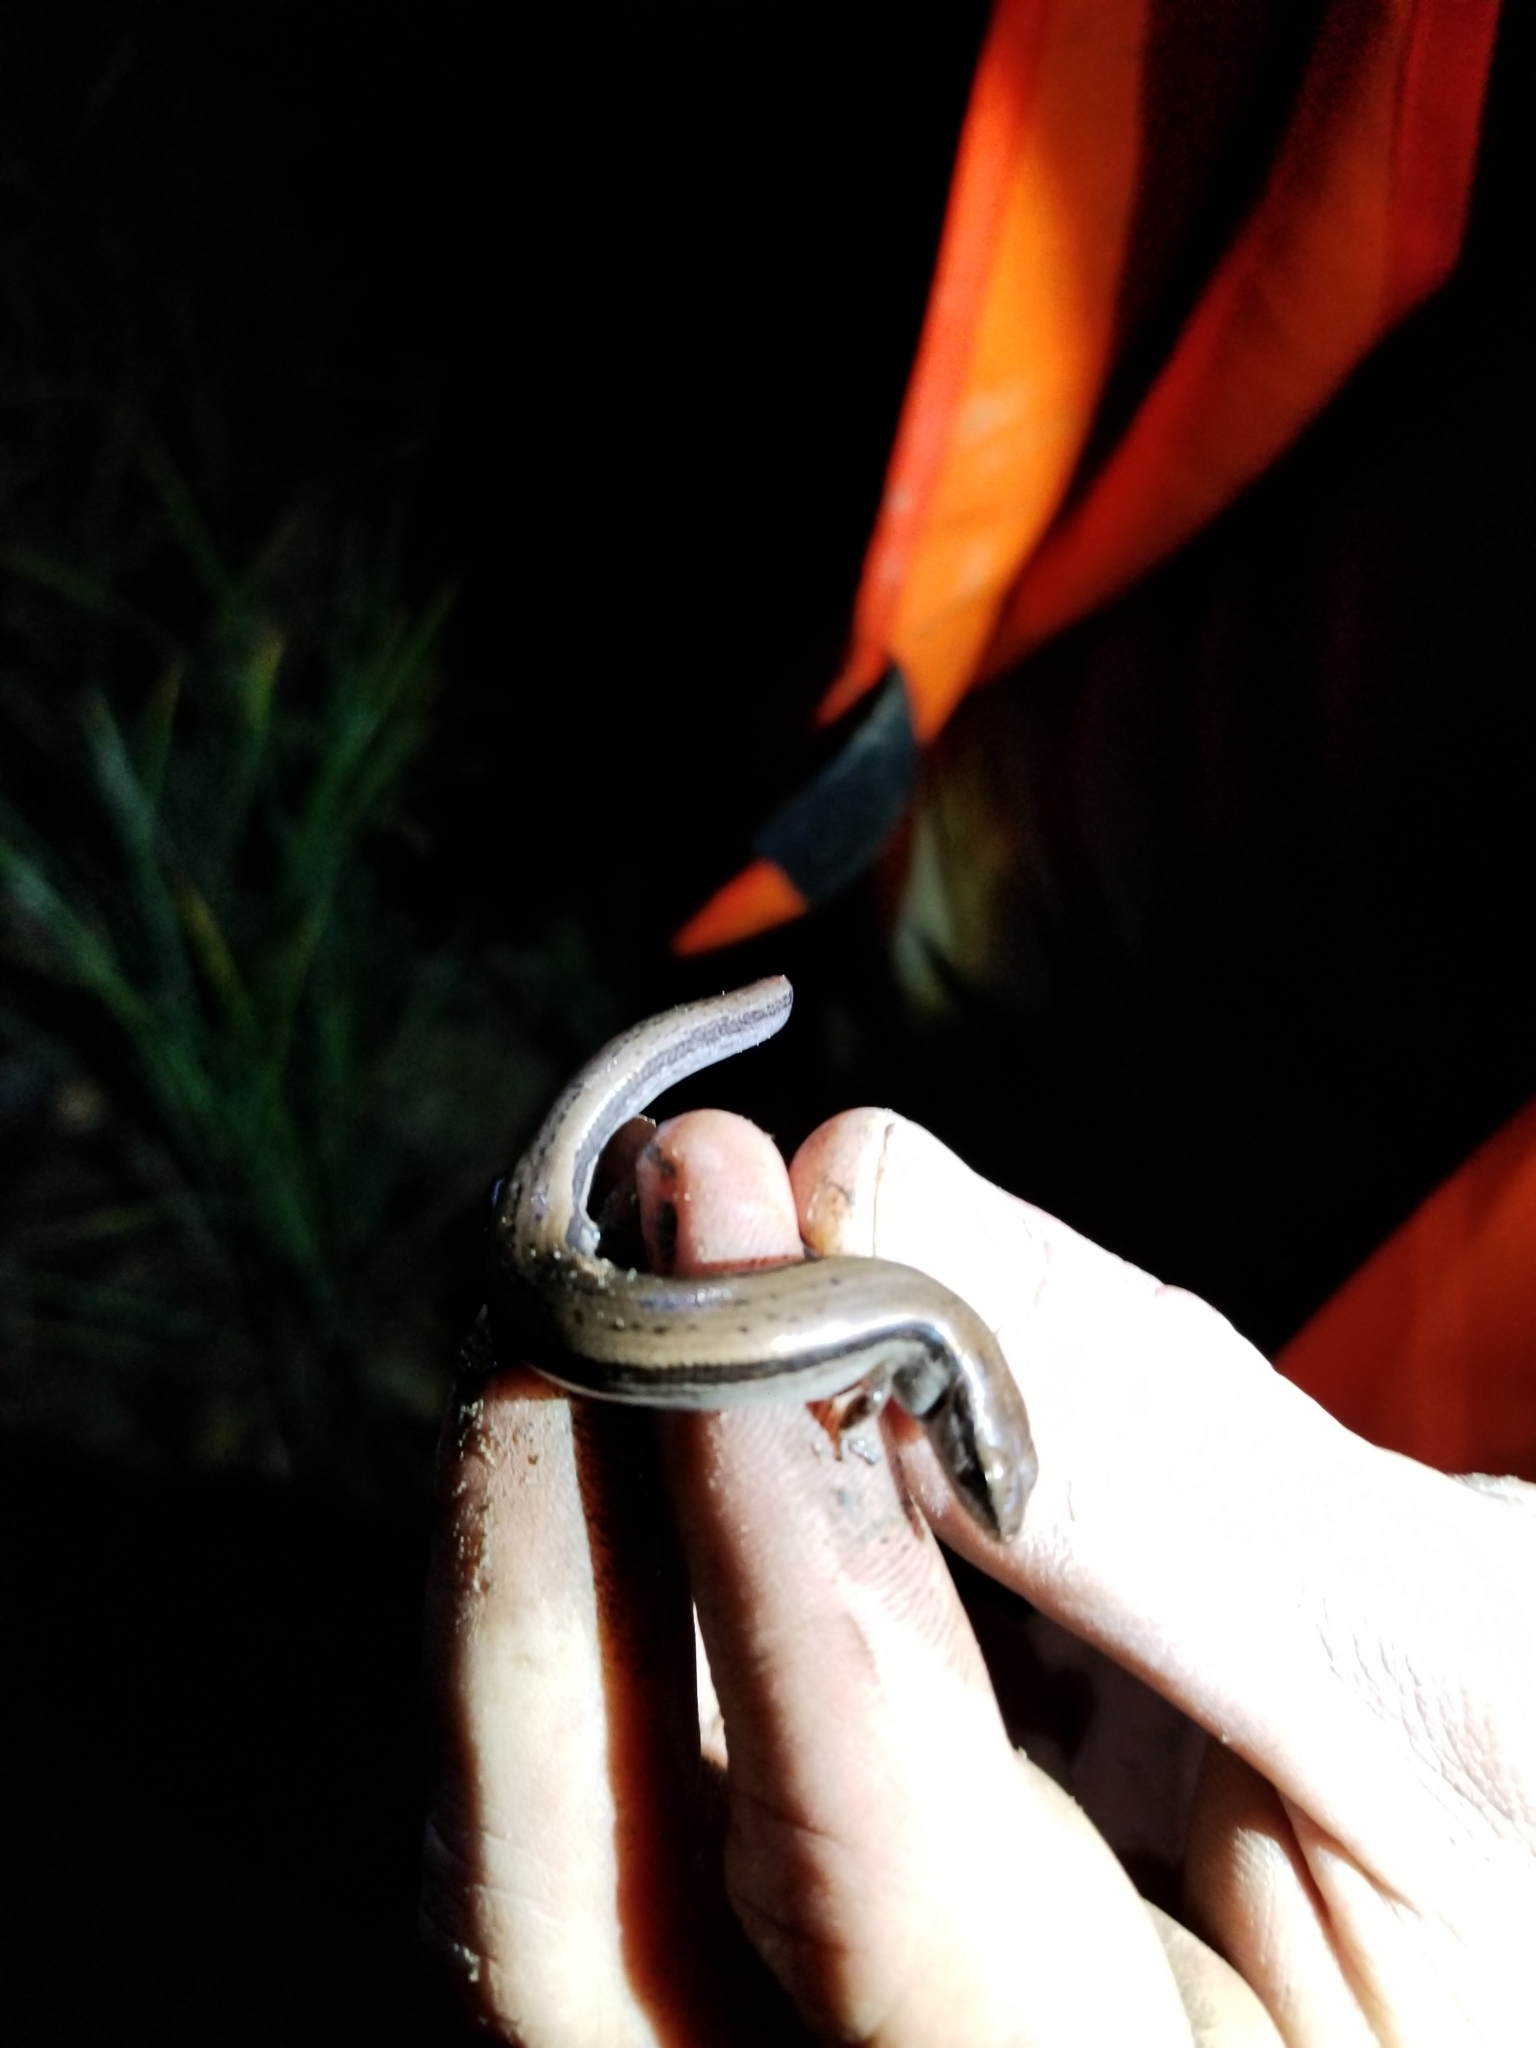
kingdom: Animalia
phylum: Chordata
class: Squamata
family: Scincidae
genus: Scincella
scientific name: Scincella lateralis
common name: Ground skink
